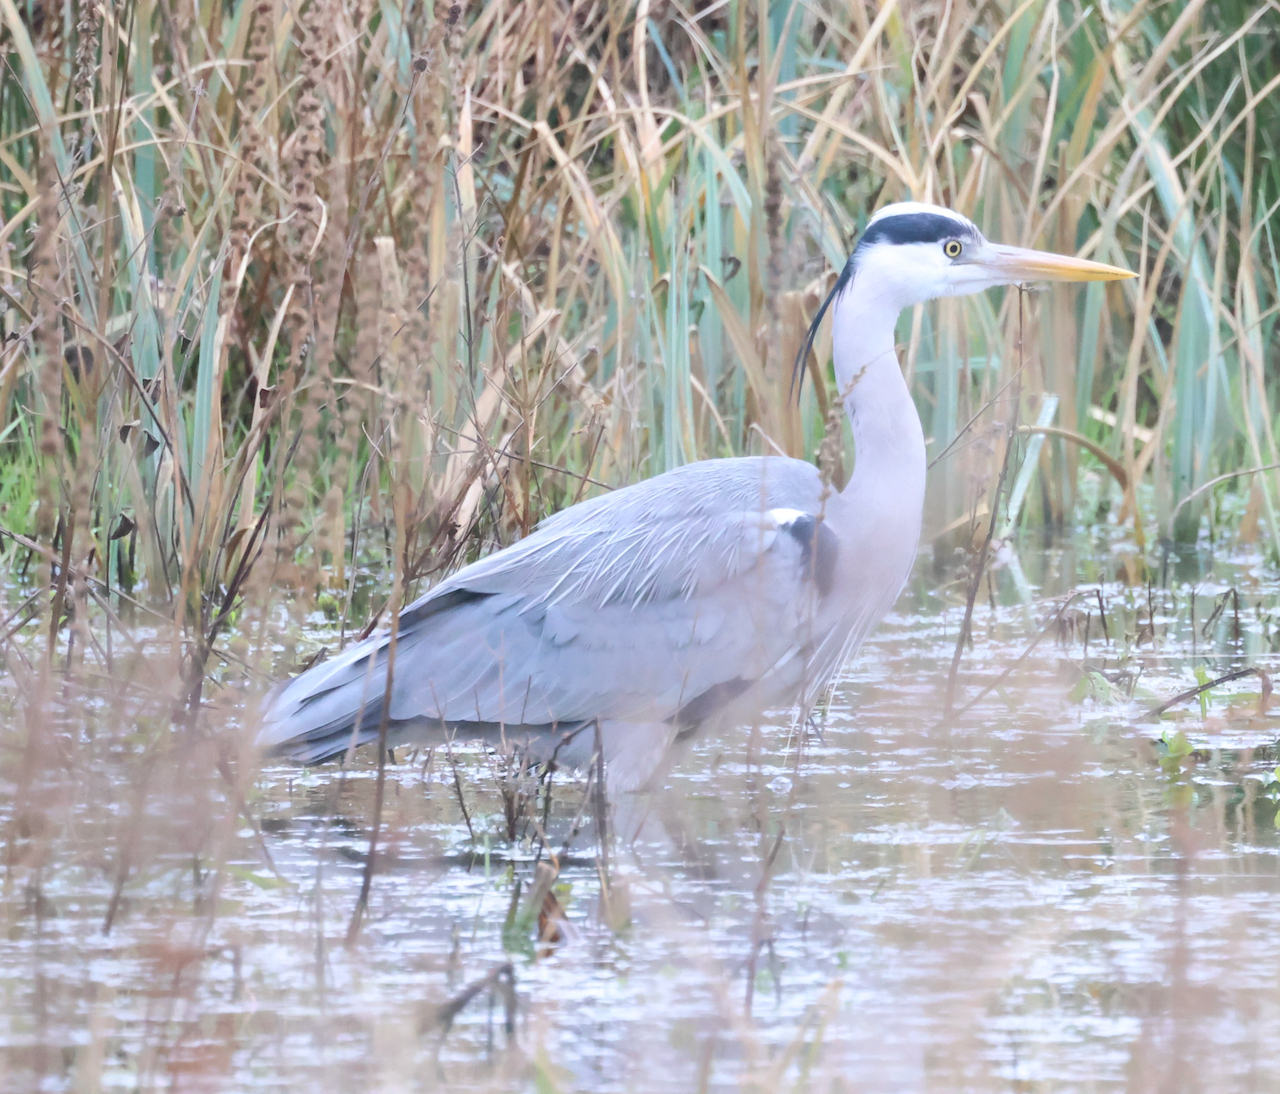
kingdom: Animalia
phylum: Chordata
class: Aves
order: Pelecaniformes
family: Ardeidae
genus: Ardea
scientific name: Ardea cinerea
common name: Grey heron
